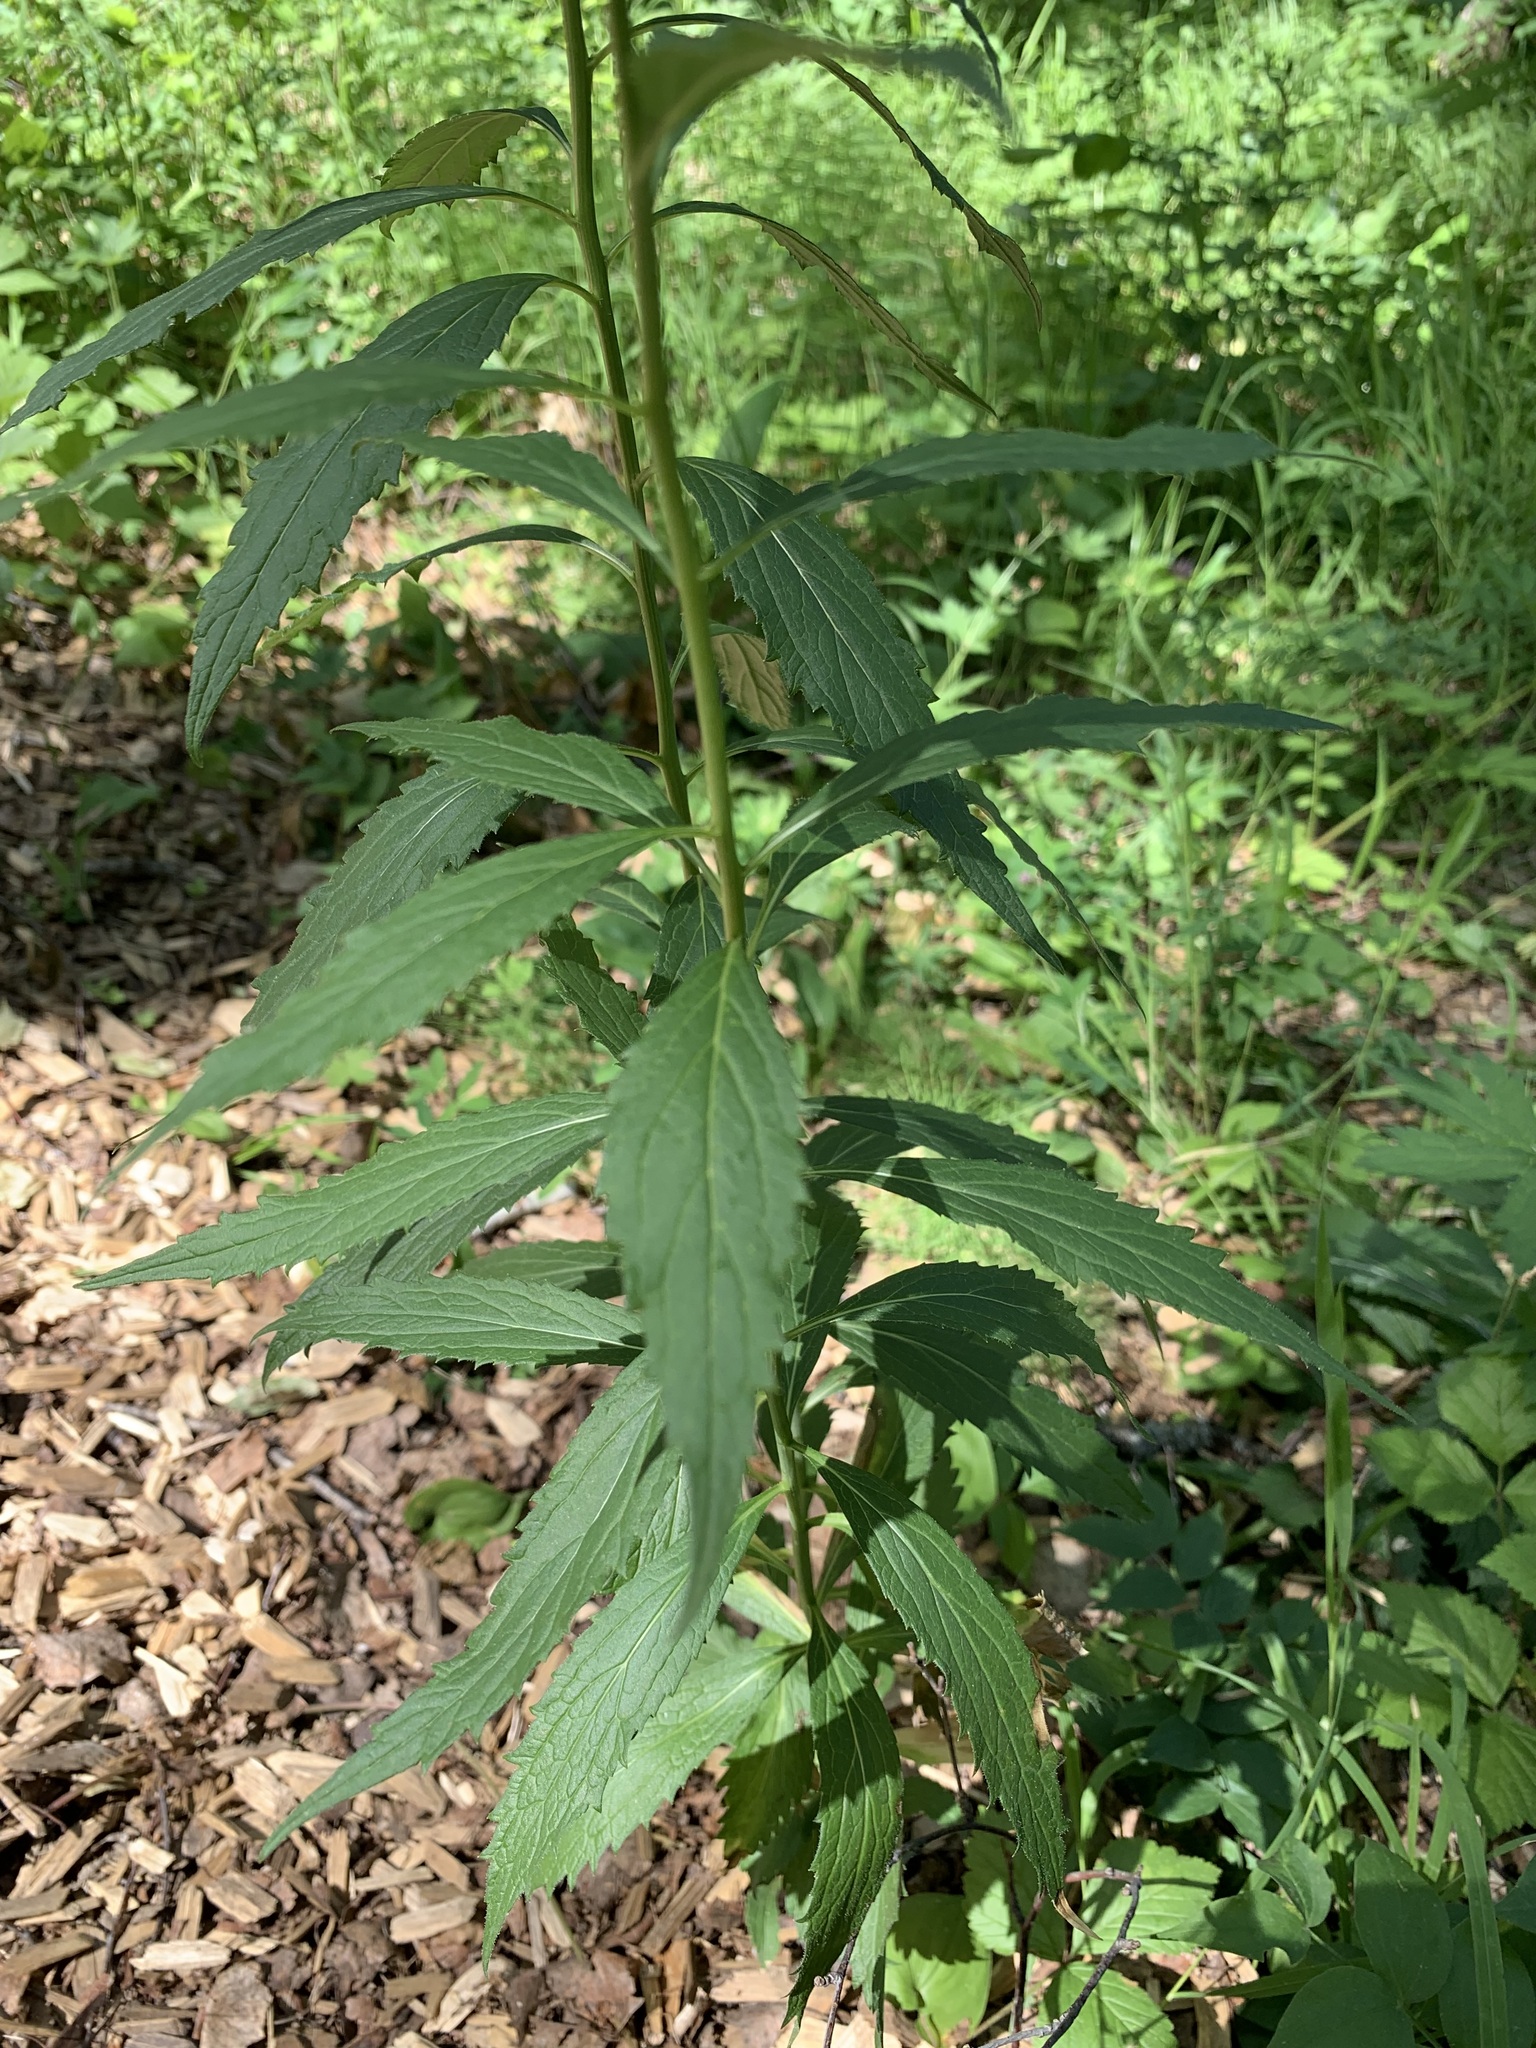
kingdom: Plantae
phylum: Tracheophyta
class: Magnoliopsida
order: Asterales
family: Campanulaceae
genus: Adenophora
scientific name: Adenophora liliifolia
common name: Lilyleaf ladybells
